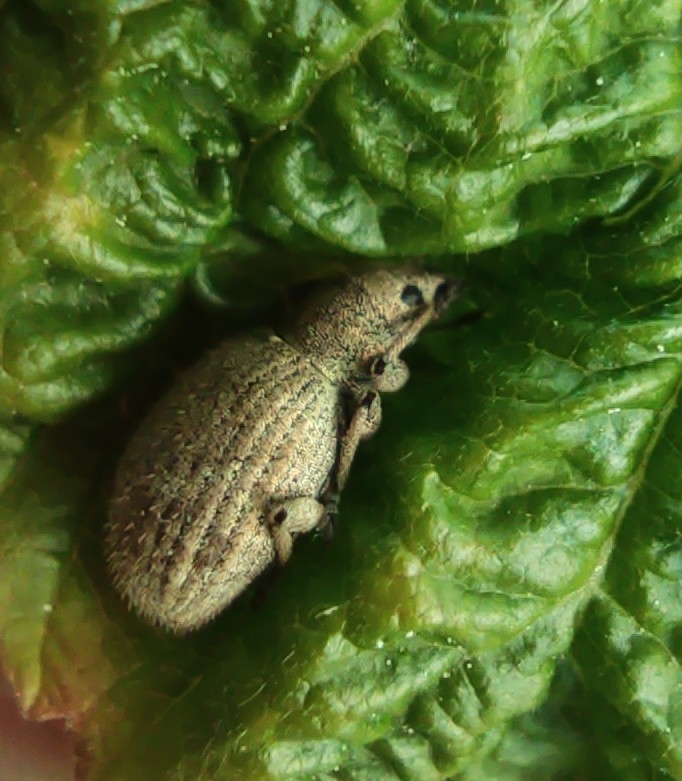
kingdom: Animalia
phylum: Arthropoda
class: Insecta
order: Coleoptera
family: Curculionidae
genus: Sciaphilus
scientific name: Sciaphilus asperatus
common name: Weevil
